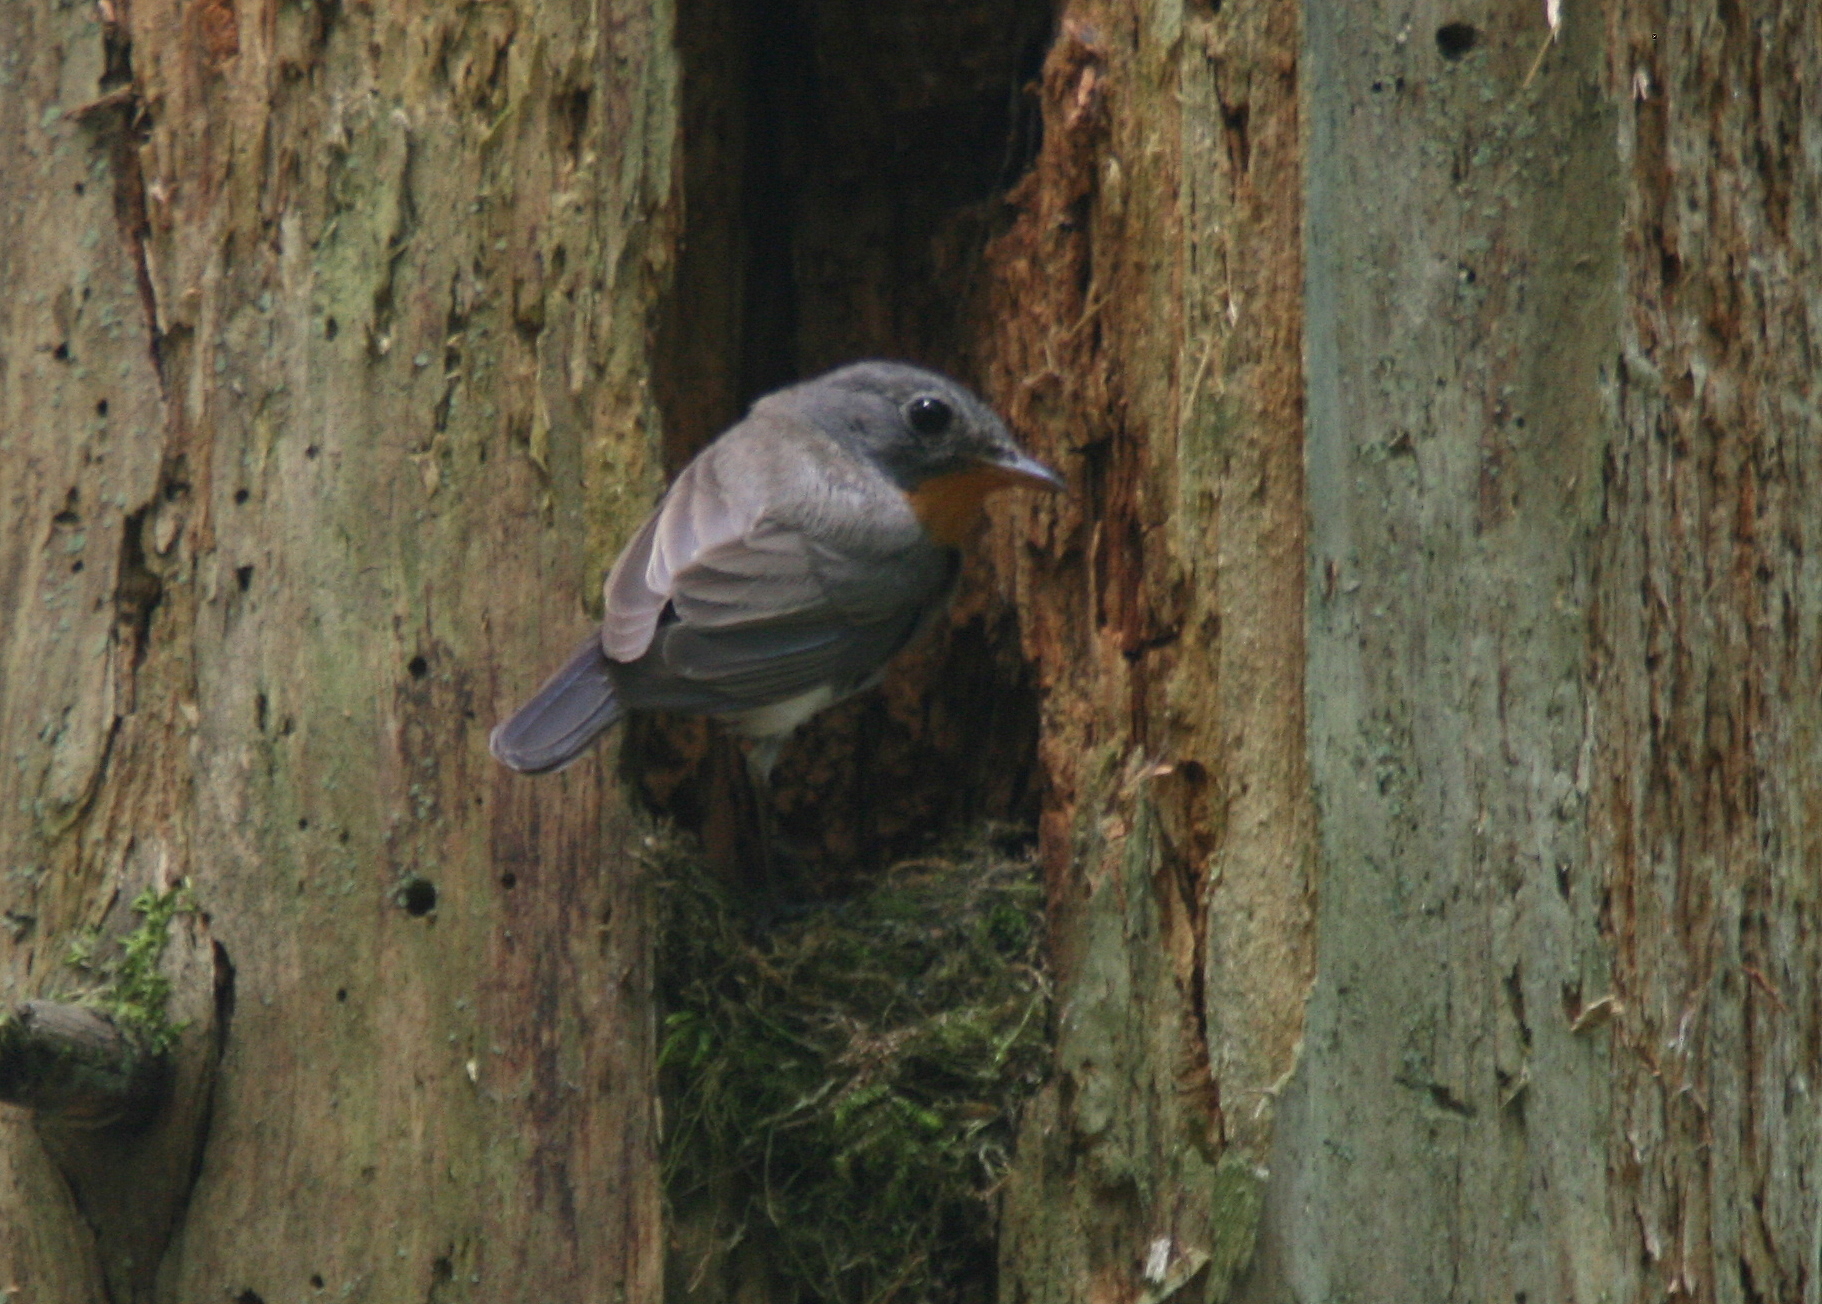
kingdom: Animalia
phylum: Chordata
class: Aves
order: Passeriformes
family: Muscicapidae
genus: Ficedula
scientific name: Ficedula parva
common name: Red-breasted flycatcher
